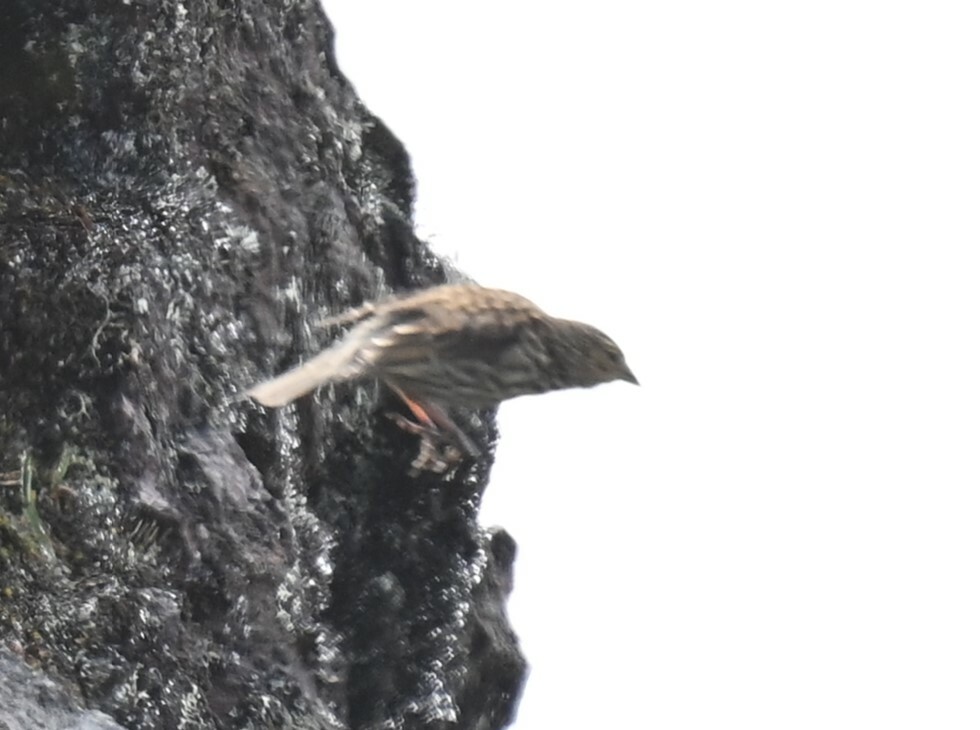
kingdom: Animalia
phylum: Chordata
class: Aves
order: Passeriformes
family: Thraupidae
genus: Geospizopsis
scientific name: Geospizopsis unicolor
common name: Plumbeous sierra-finch
